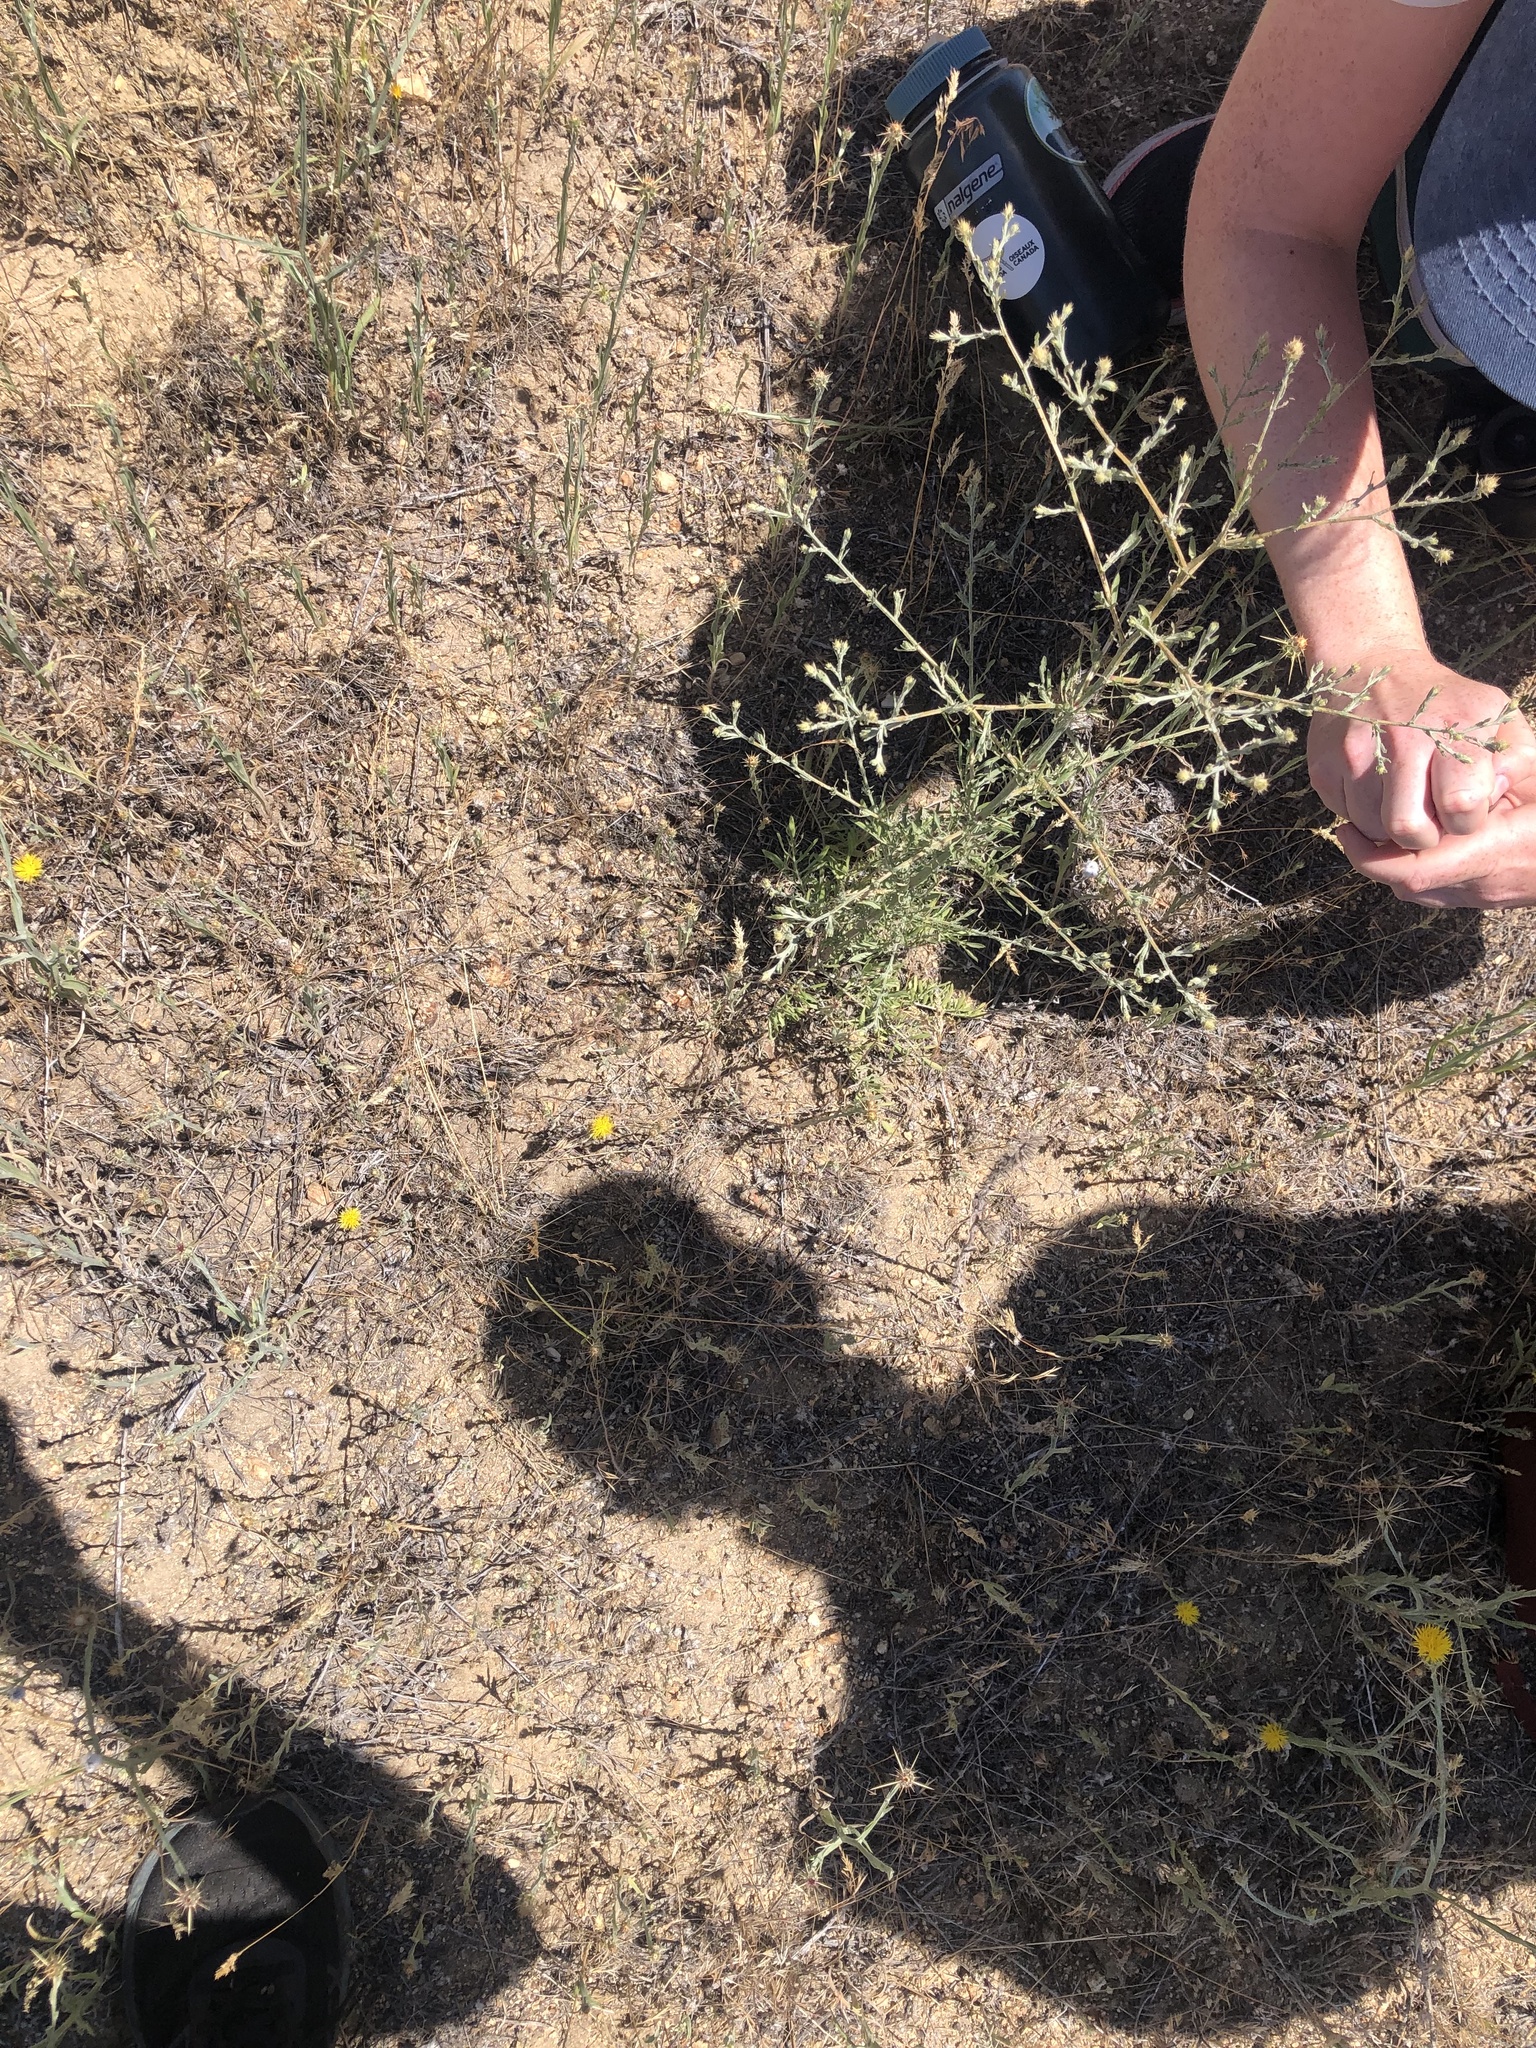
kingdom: Plantae
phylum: Tracheophyta
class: Magnoliopsida
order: Asterales
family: Asteraceae
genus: Centaurea
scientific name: Centaurea diffusa
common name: Diffuse knapweed
